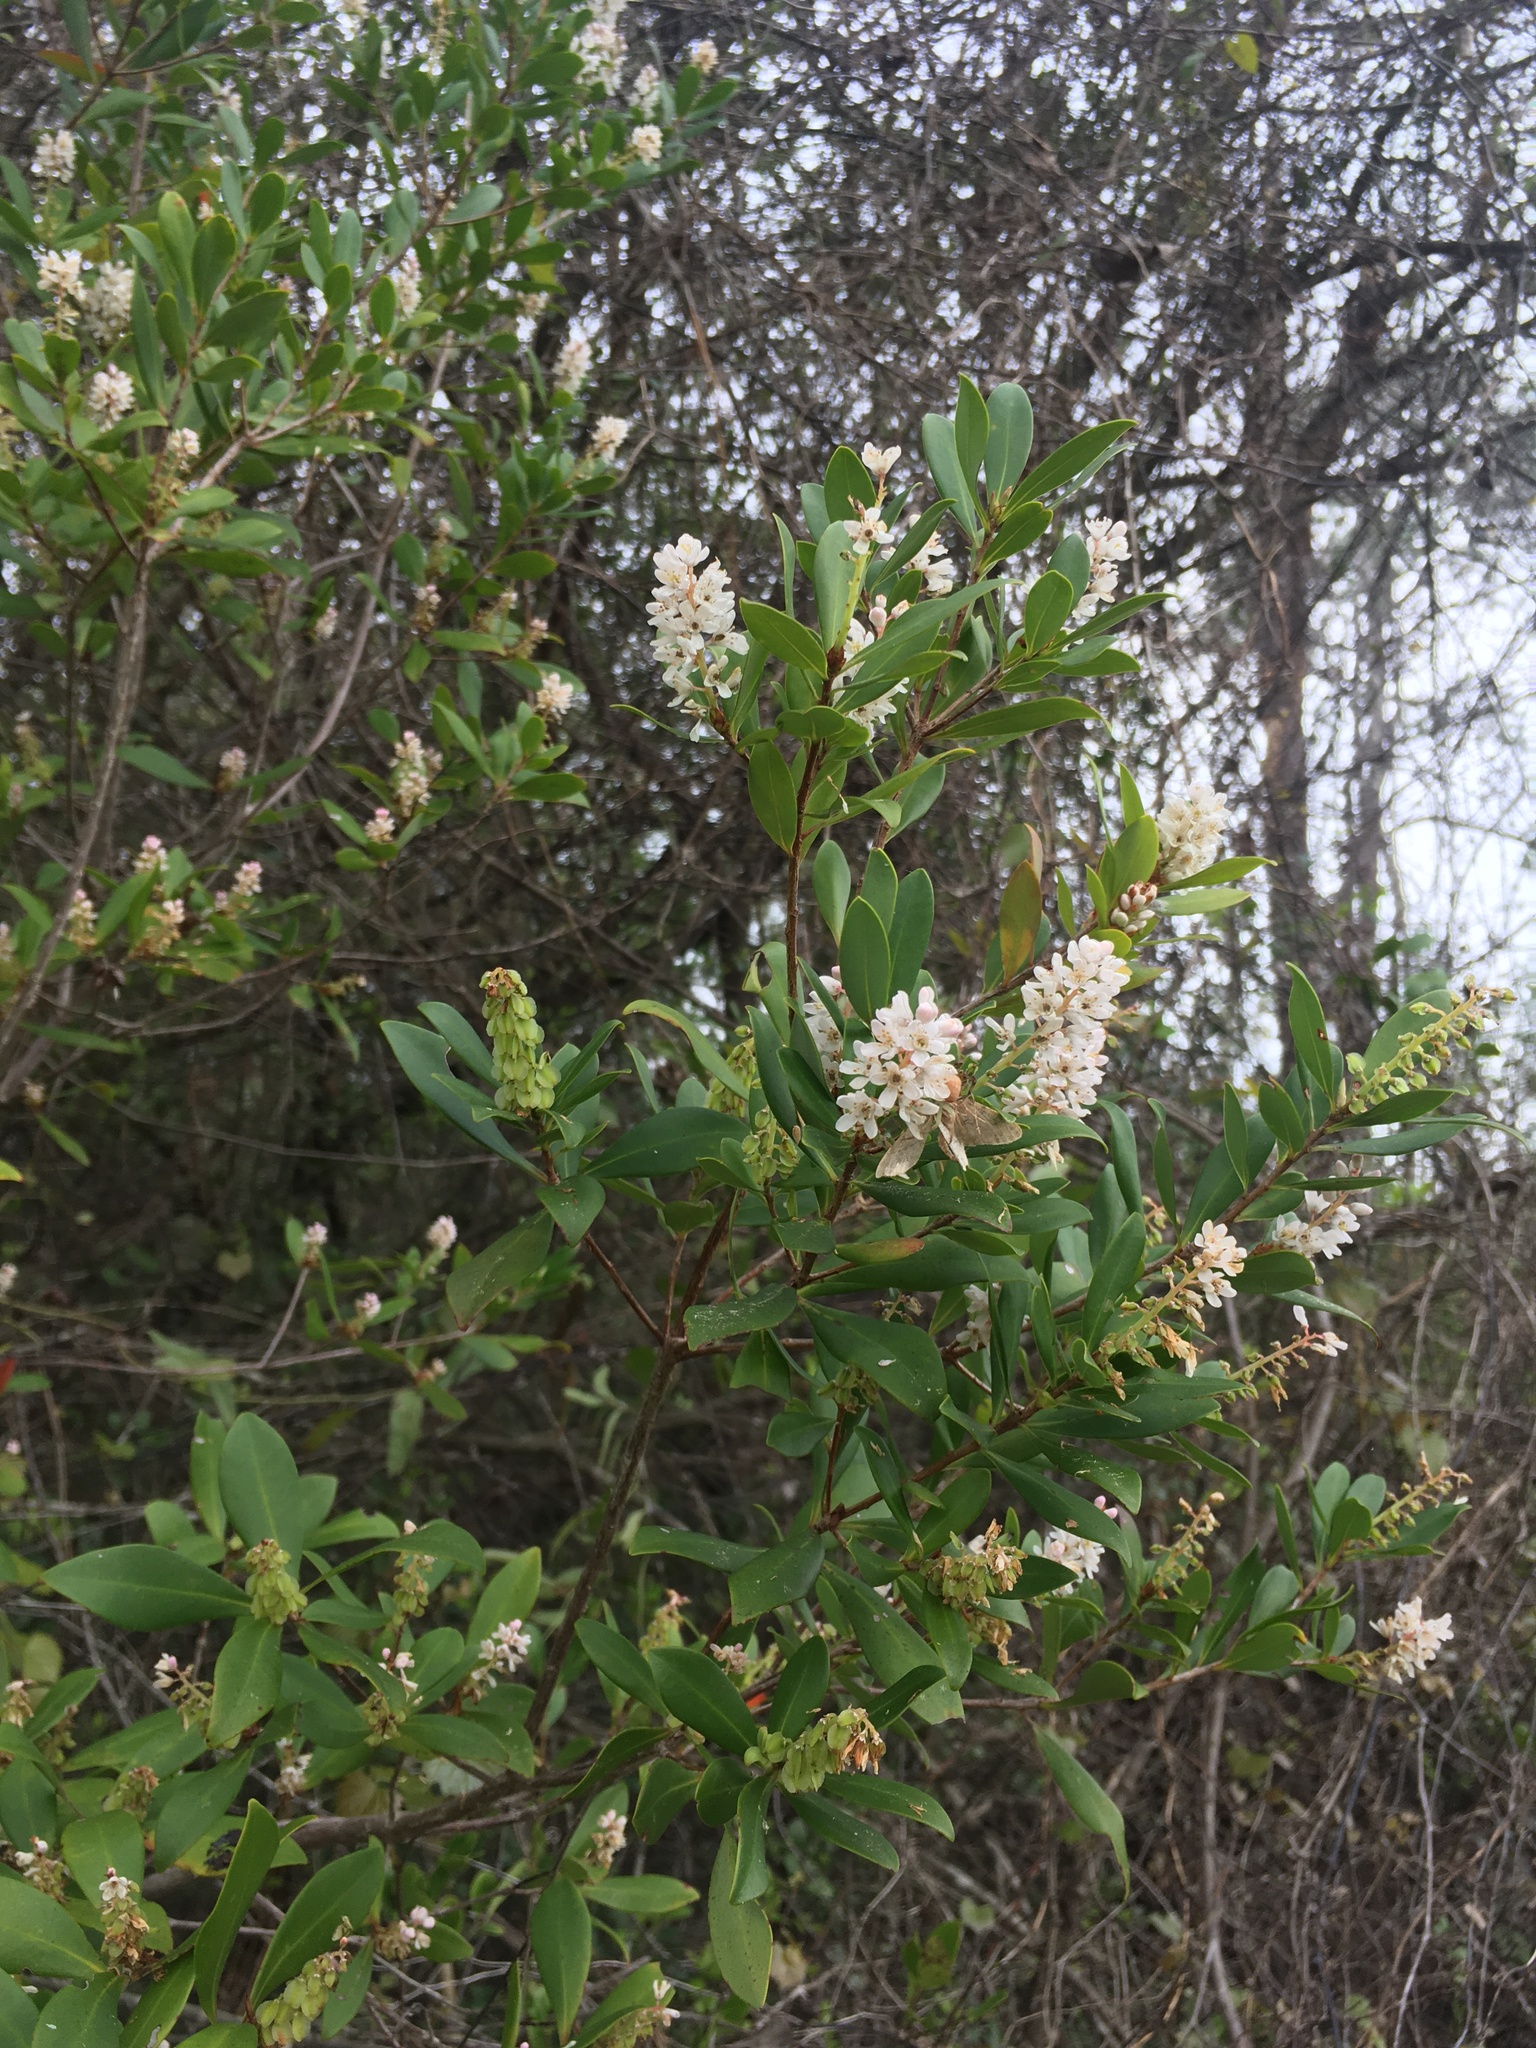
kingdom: Plantae
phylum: Tracheophyta
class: Magnoliopsida
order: Ericales
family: Cyrillaceae
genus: Cliftonia
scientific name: Cliftonia monophylla
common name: Titi
